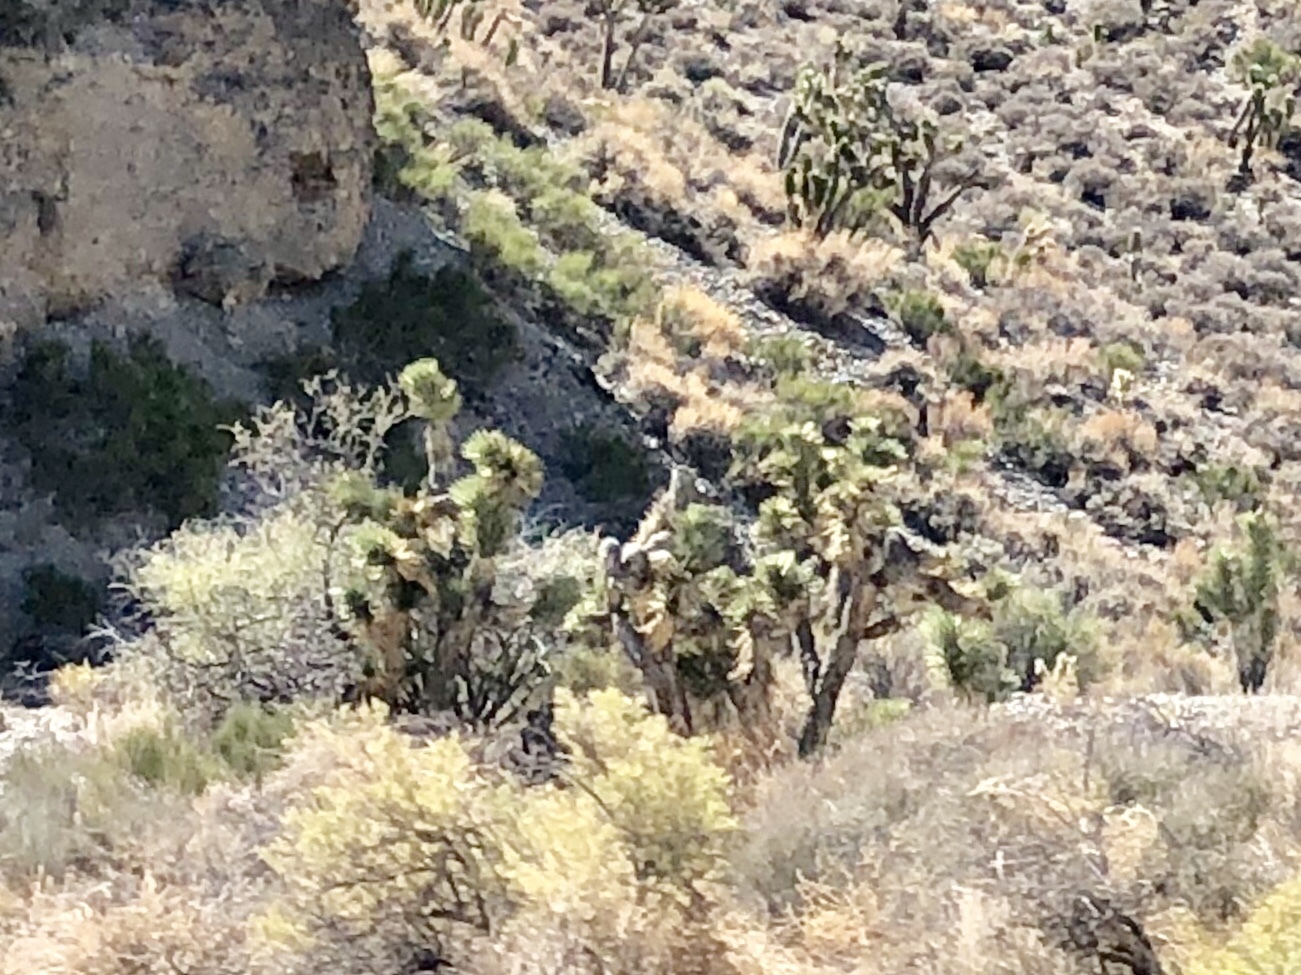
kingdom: Plantae
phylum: Tracheophyta
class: Liliopsida
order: Asparagales
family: Asparagaceae
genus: Yucca
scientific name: Yucca brevifolia
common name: Joshua tree
